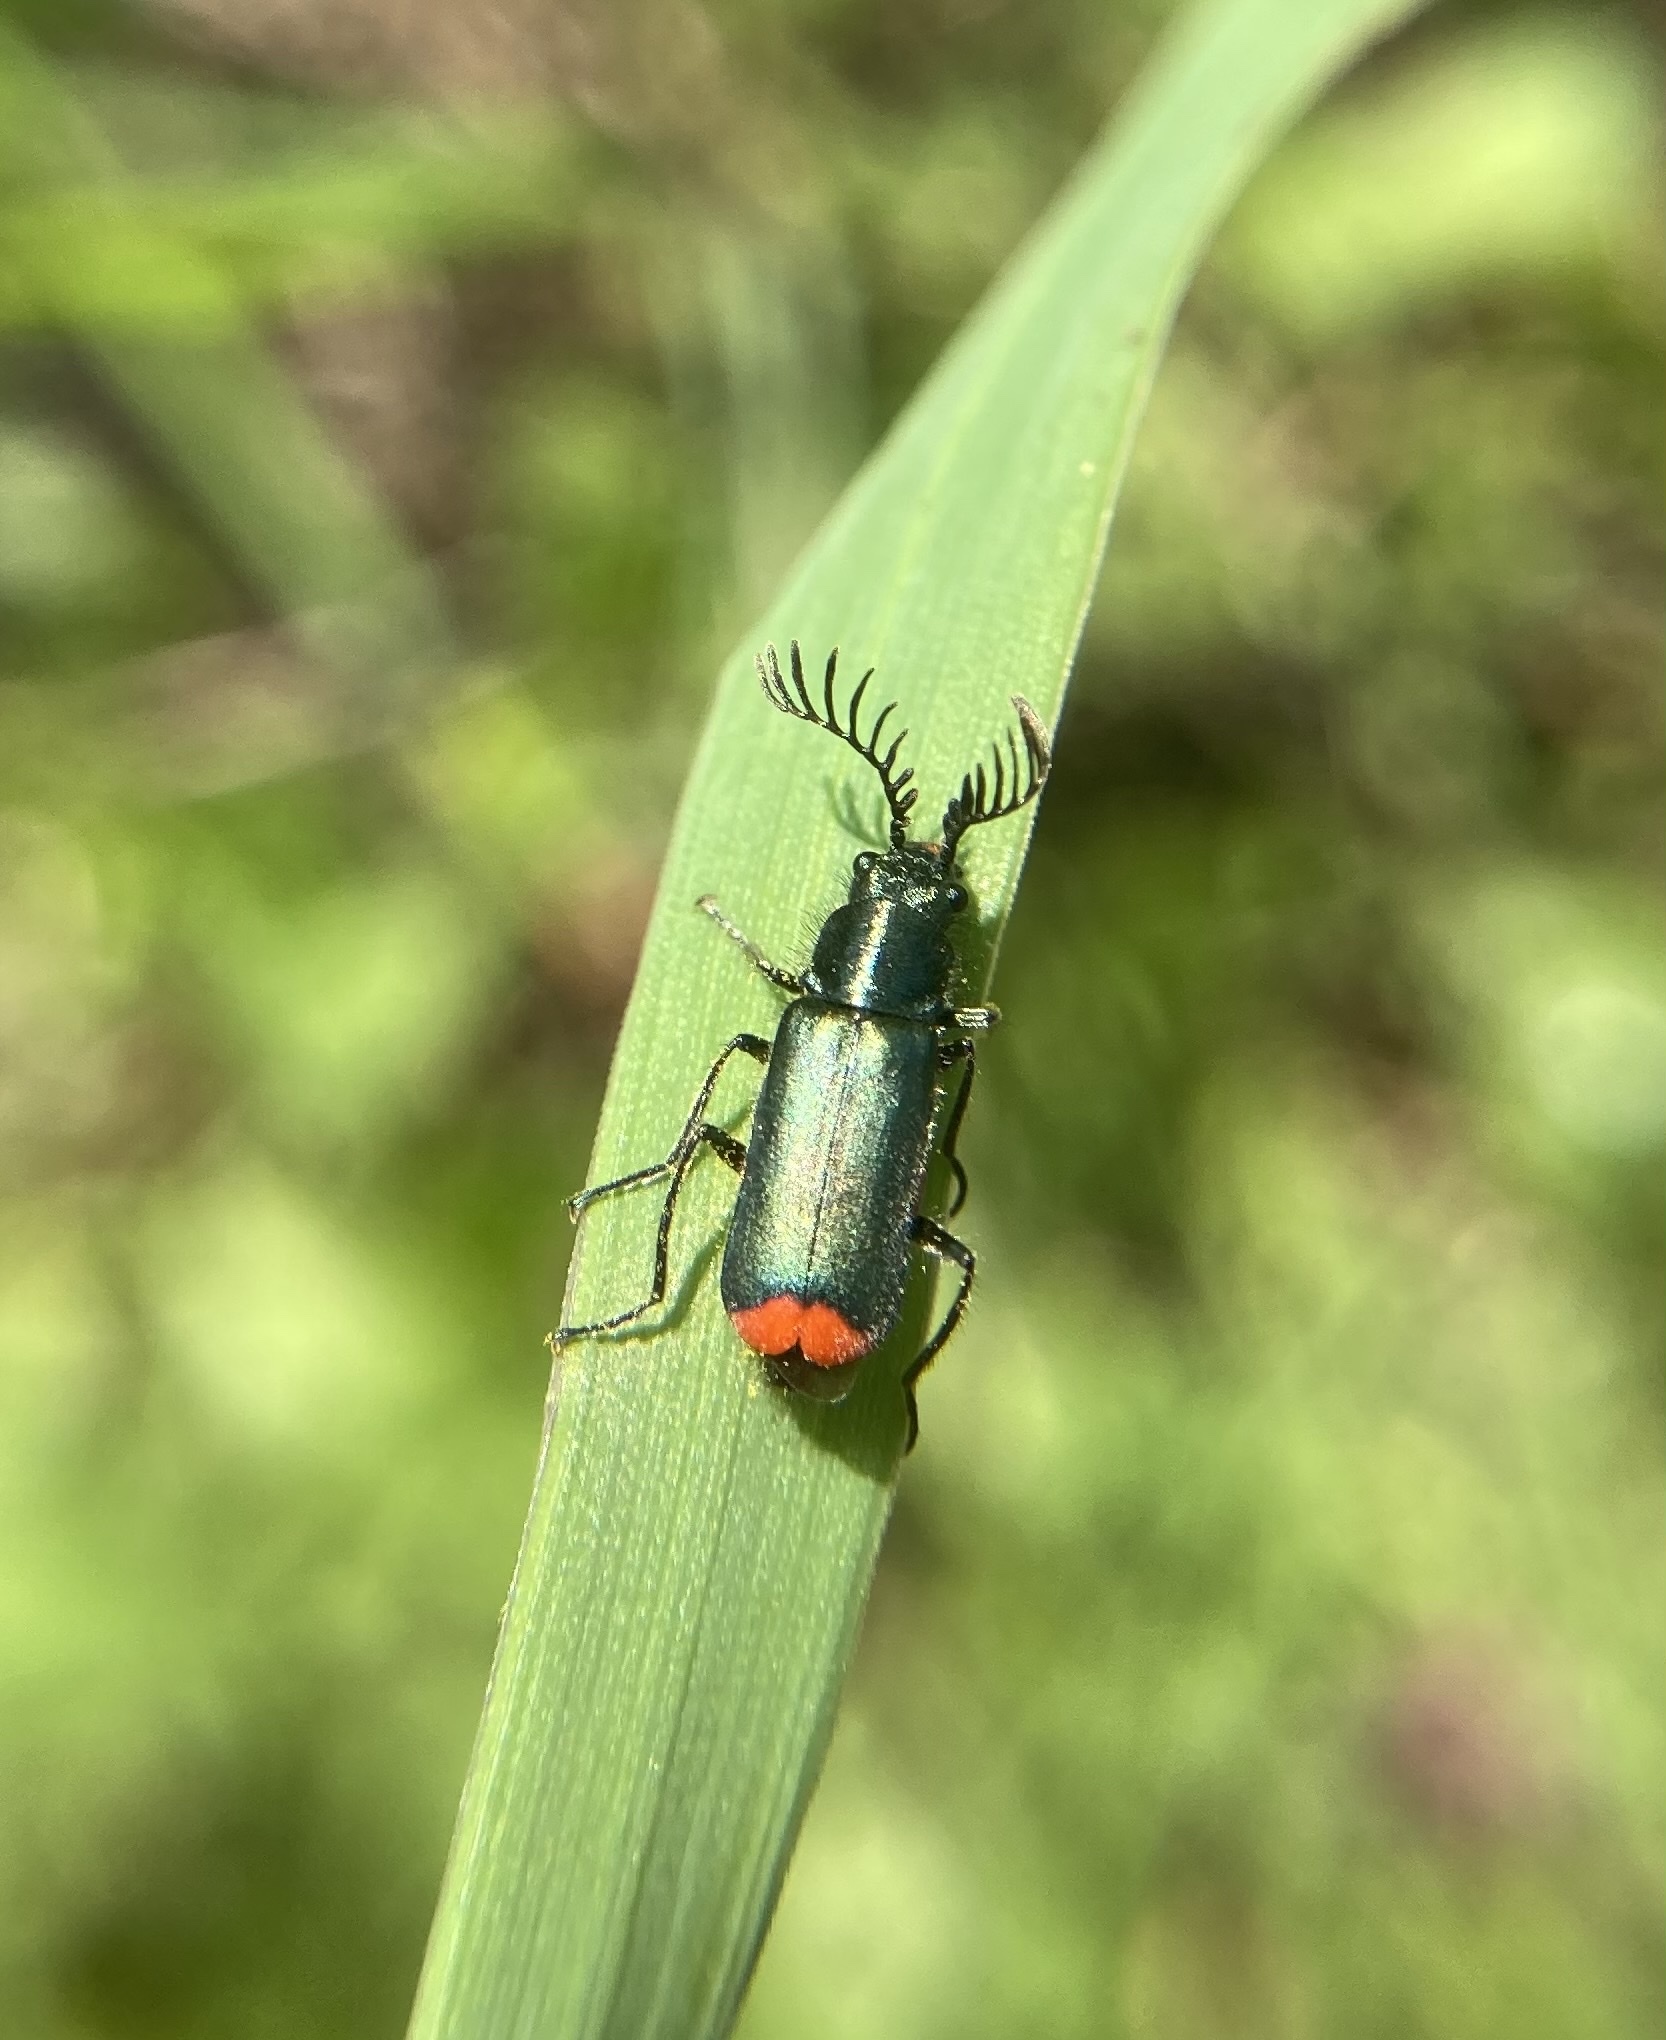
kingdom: Animalia
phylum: Arthropoda
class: Insecta
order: Coleoptera
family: Malachiidae
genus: Haplomalachius
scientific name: Haplomalachius flabellatus
